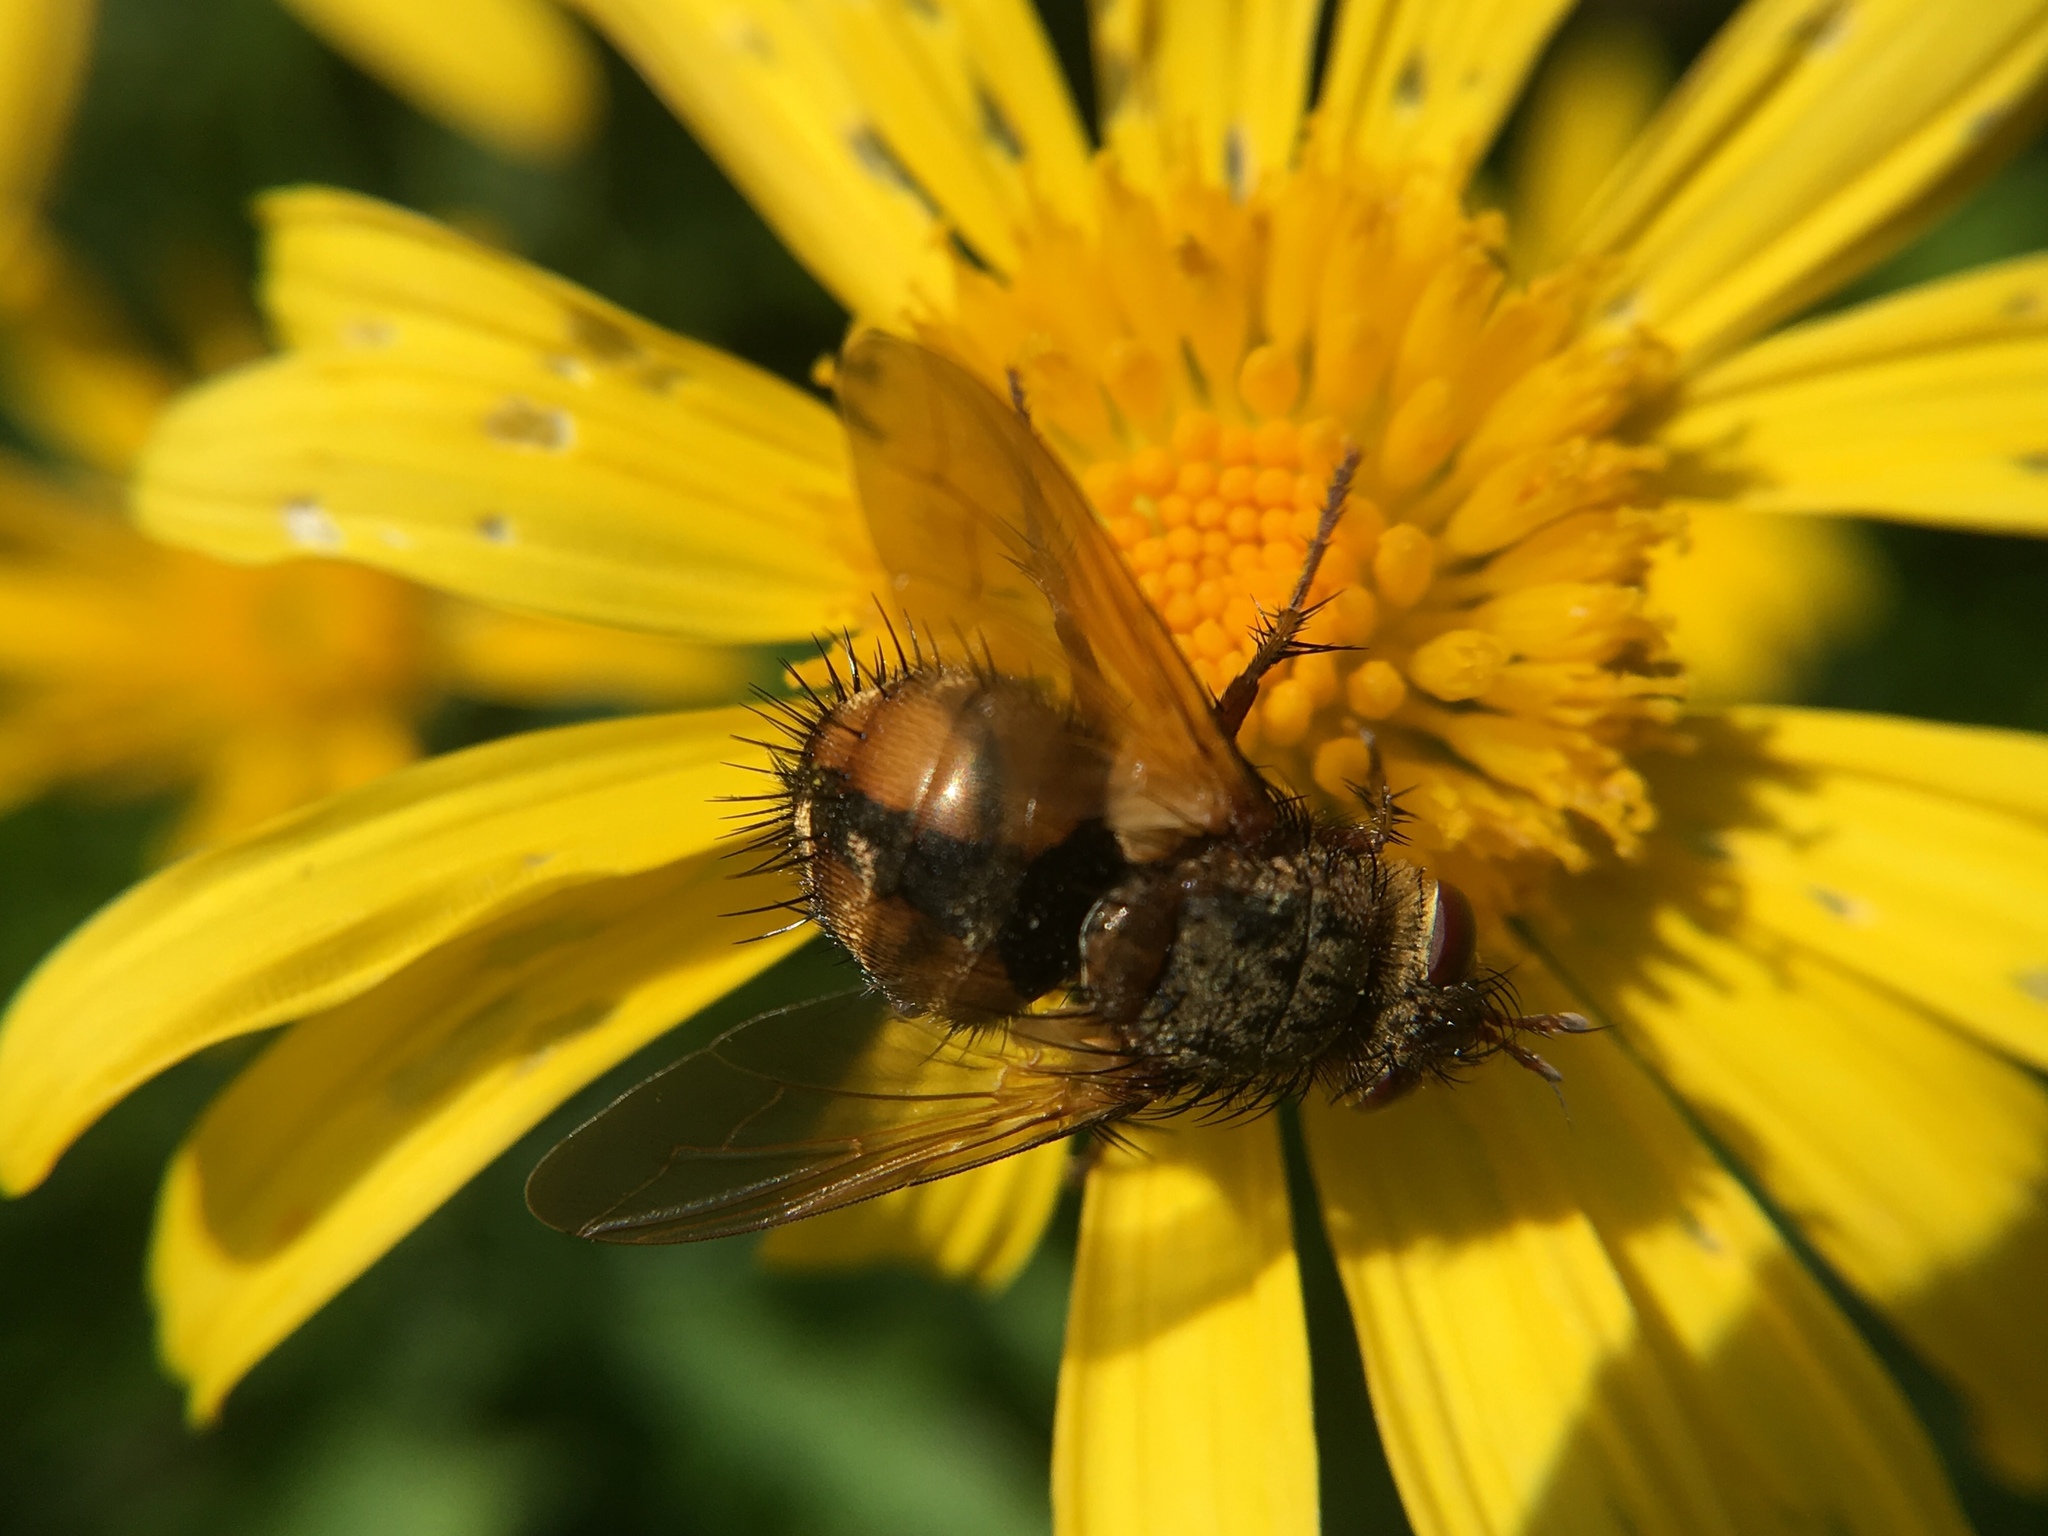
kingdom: Animalia
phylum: Arthropoda
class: Insecta
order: Diptera
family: Tachinidae
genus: Tachina
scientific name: Tachina fera
